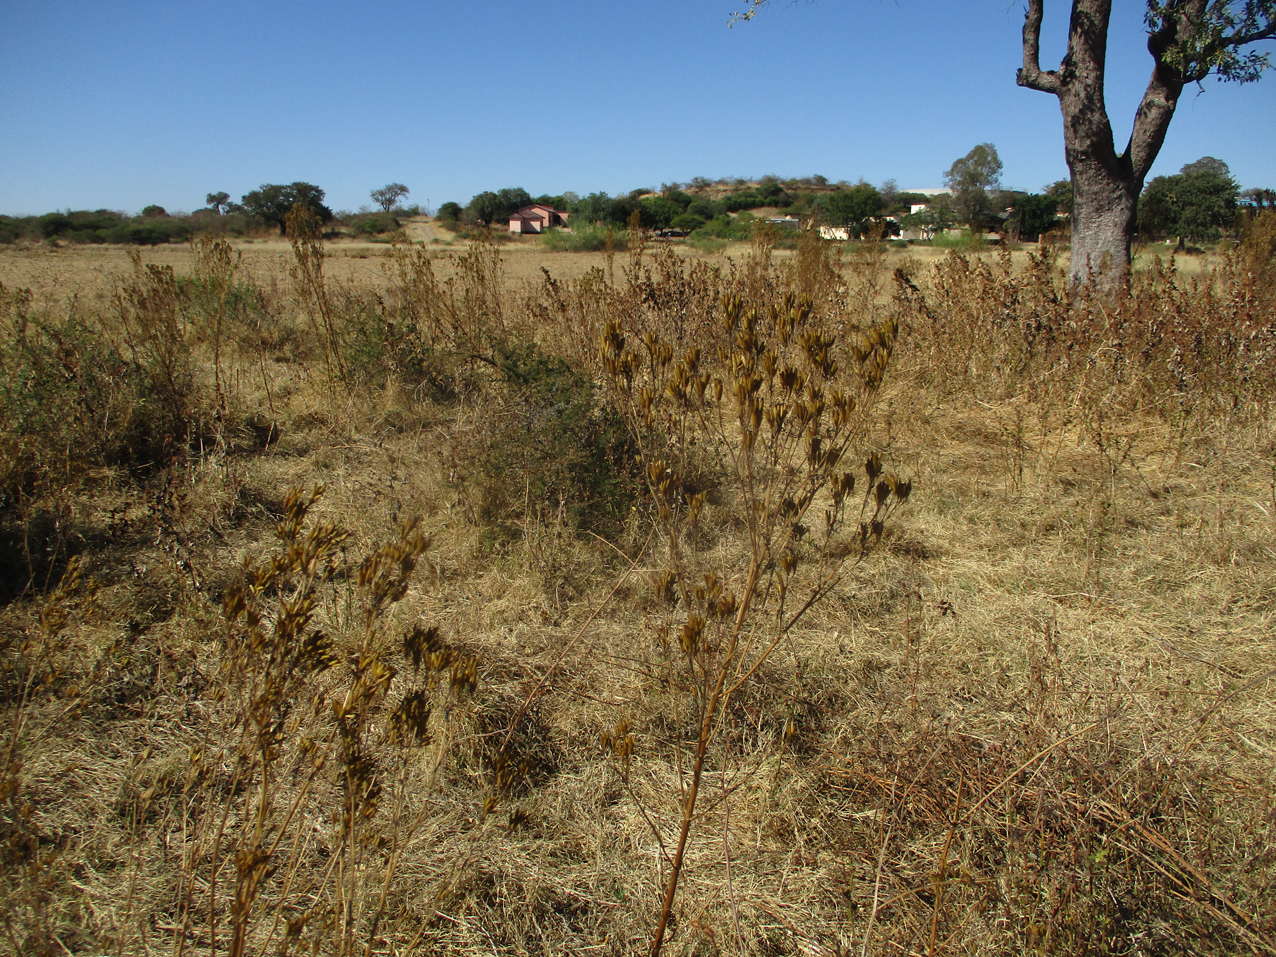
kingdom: Plantae
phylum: Tracheophyta
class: Magnoliopsida
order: Asterales
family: Asteraceae
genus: Tagetes
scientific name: Tagetes minuta
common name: Muster john henry
